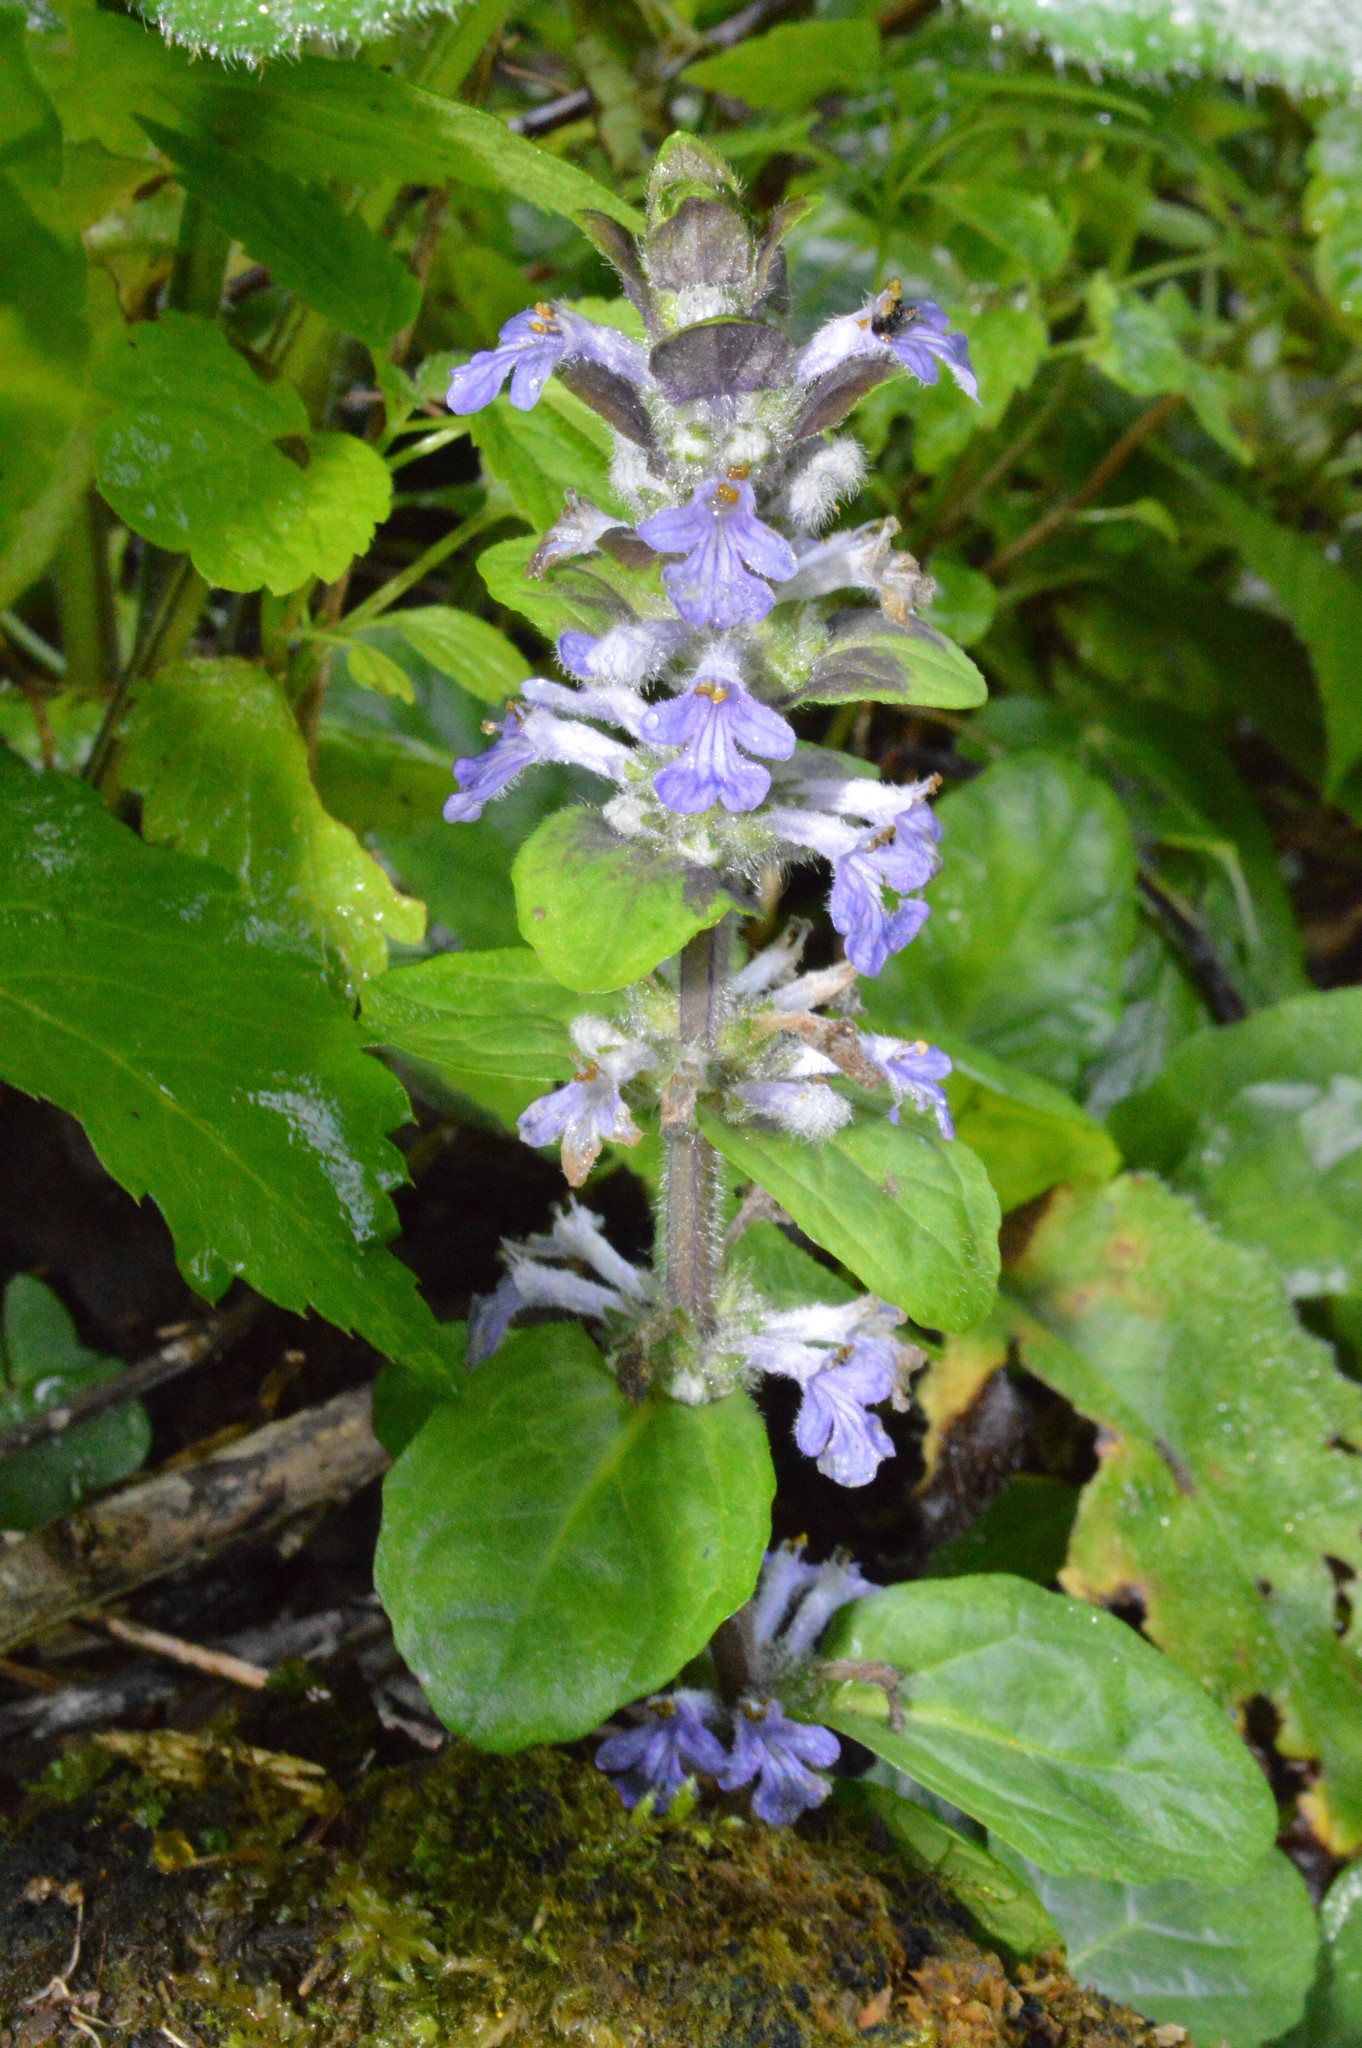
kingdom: Plantae
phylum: Tracheophyta
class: Magnoliopsida
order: Lamiales
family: Lamiaceae
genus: Ajuga
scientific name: Ajuga reptans
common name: Bugle
